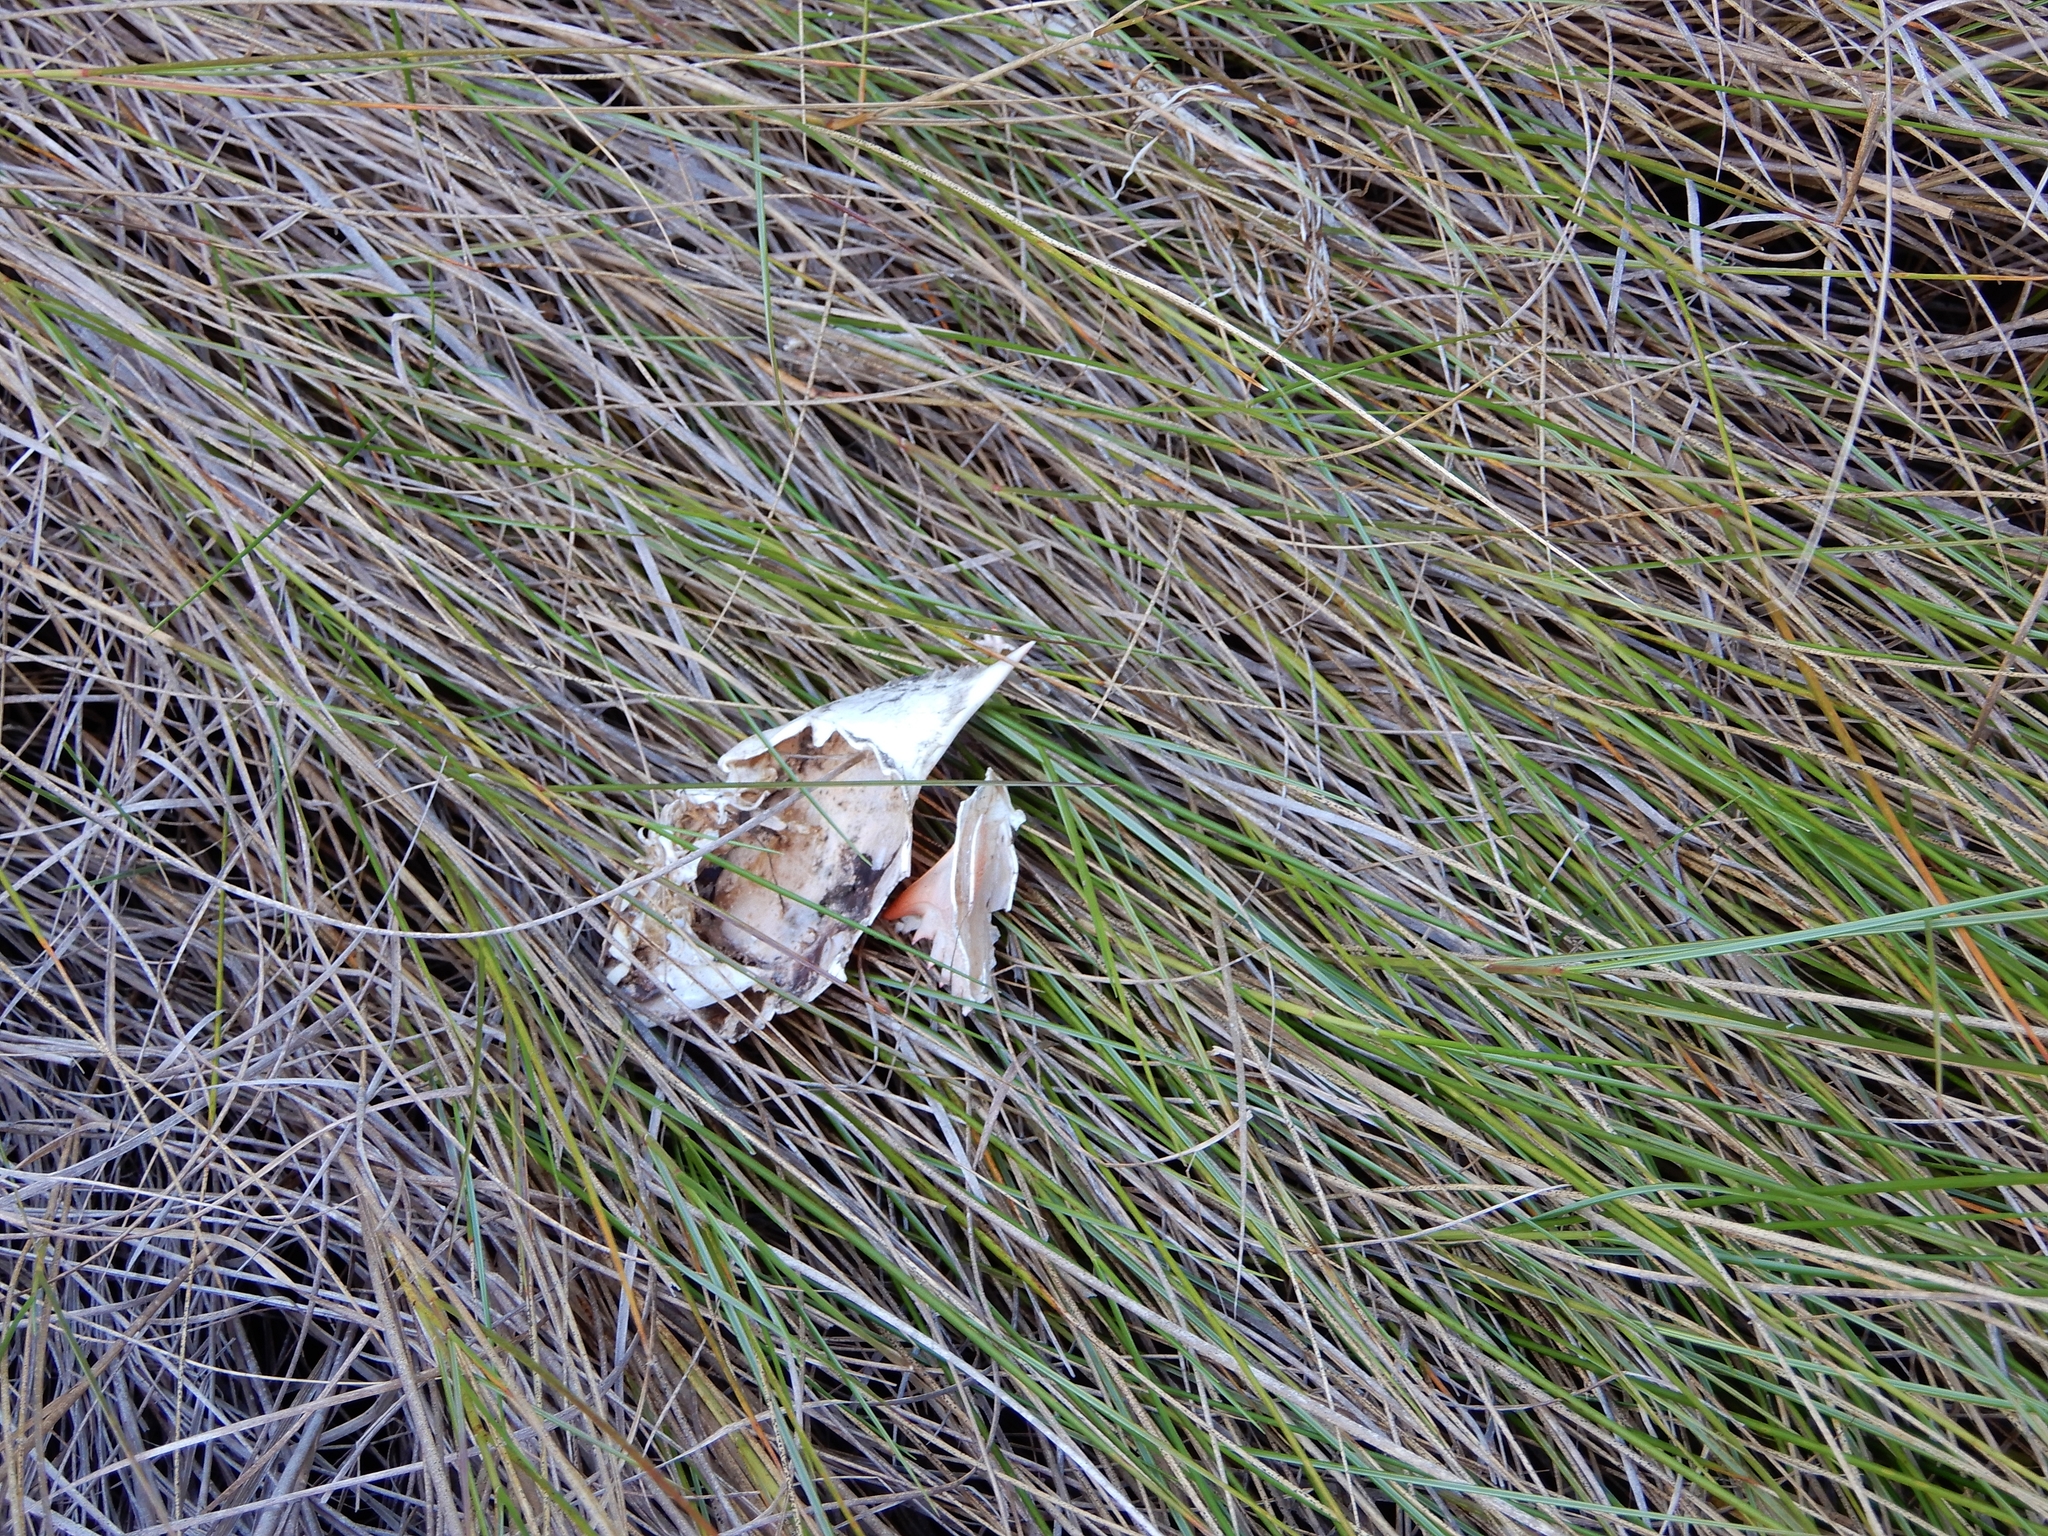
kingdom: Animalia
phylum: Arthropoda
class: Malacostraca
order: Decapoda
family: Portunidae
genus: Callinectes
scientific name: Callinectes sapidus
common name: Blue crab
